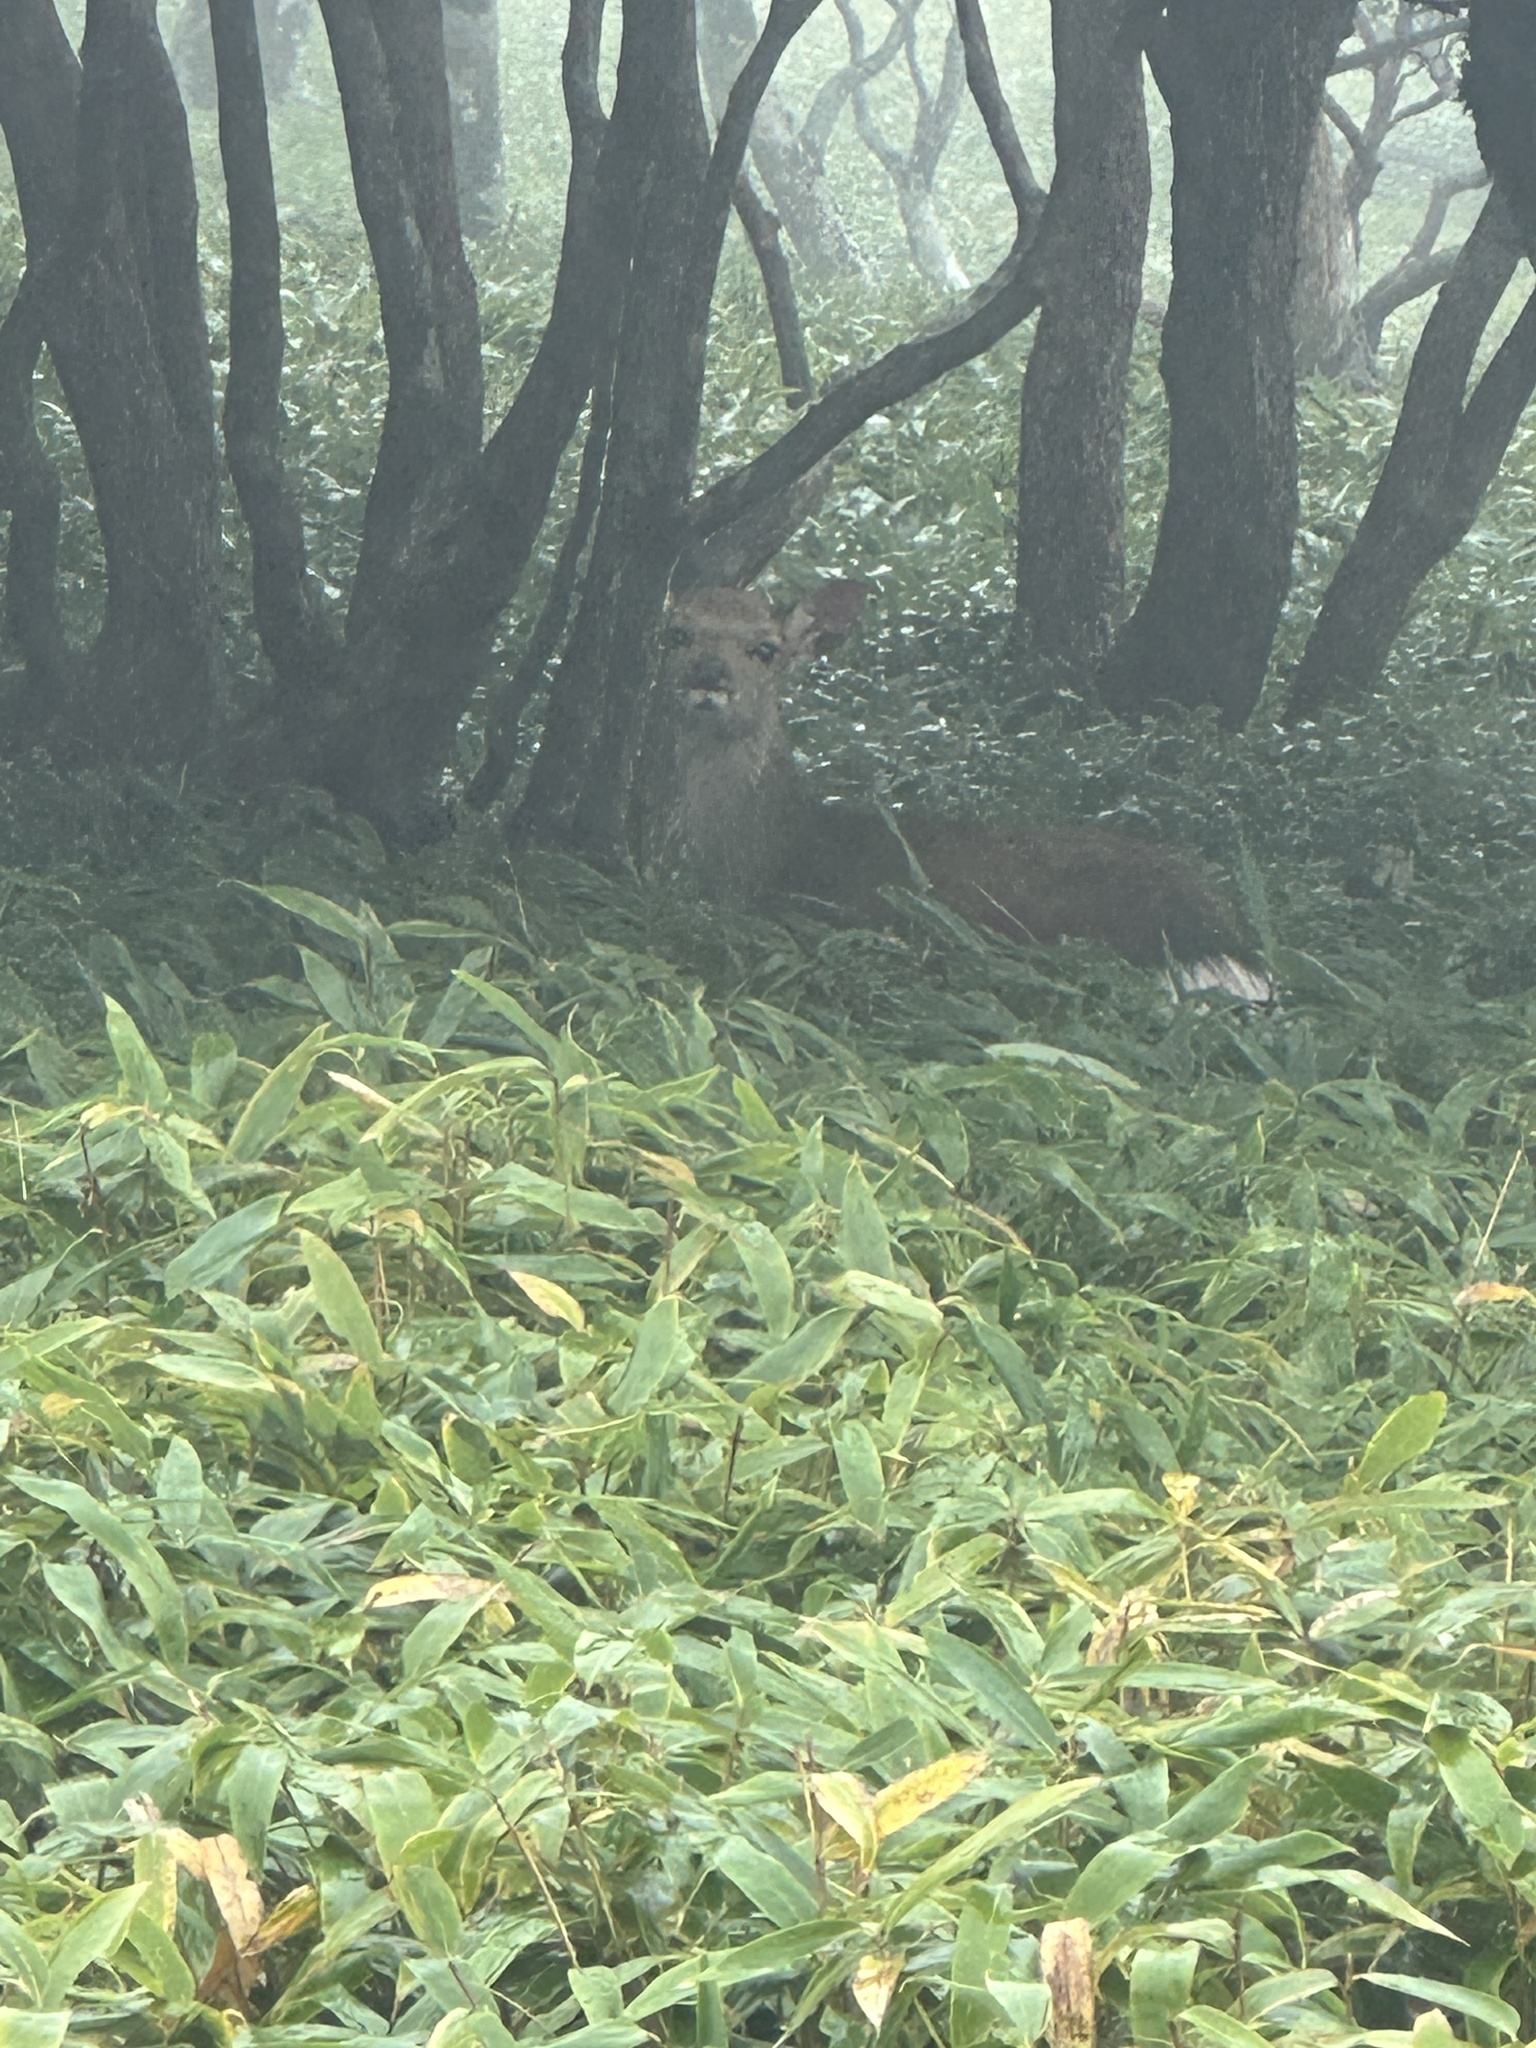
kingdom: Animalia
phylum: Chordata
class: Mammalia
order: Artiodactyla
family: Cervidae
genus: Cervus
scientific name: Cervus nippon
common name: Sika deer
